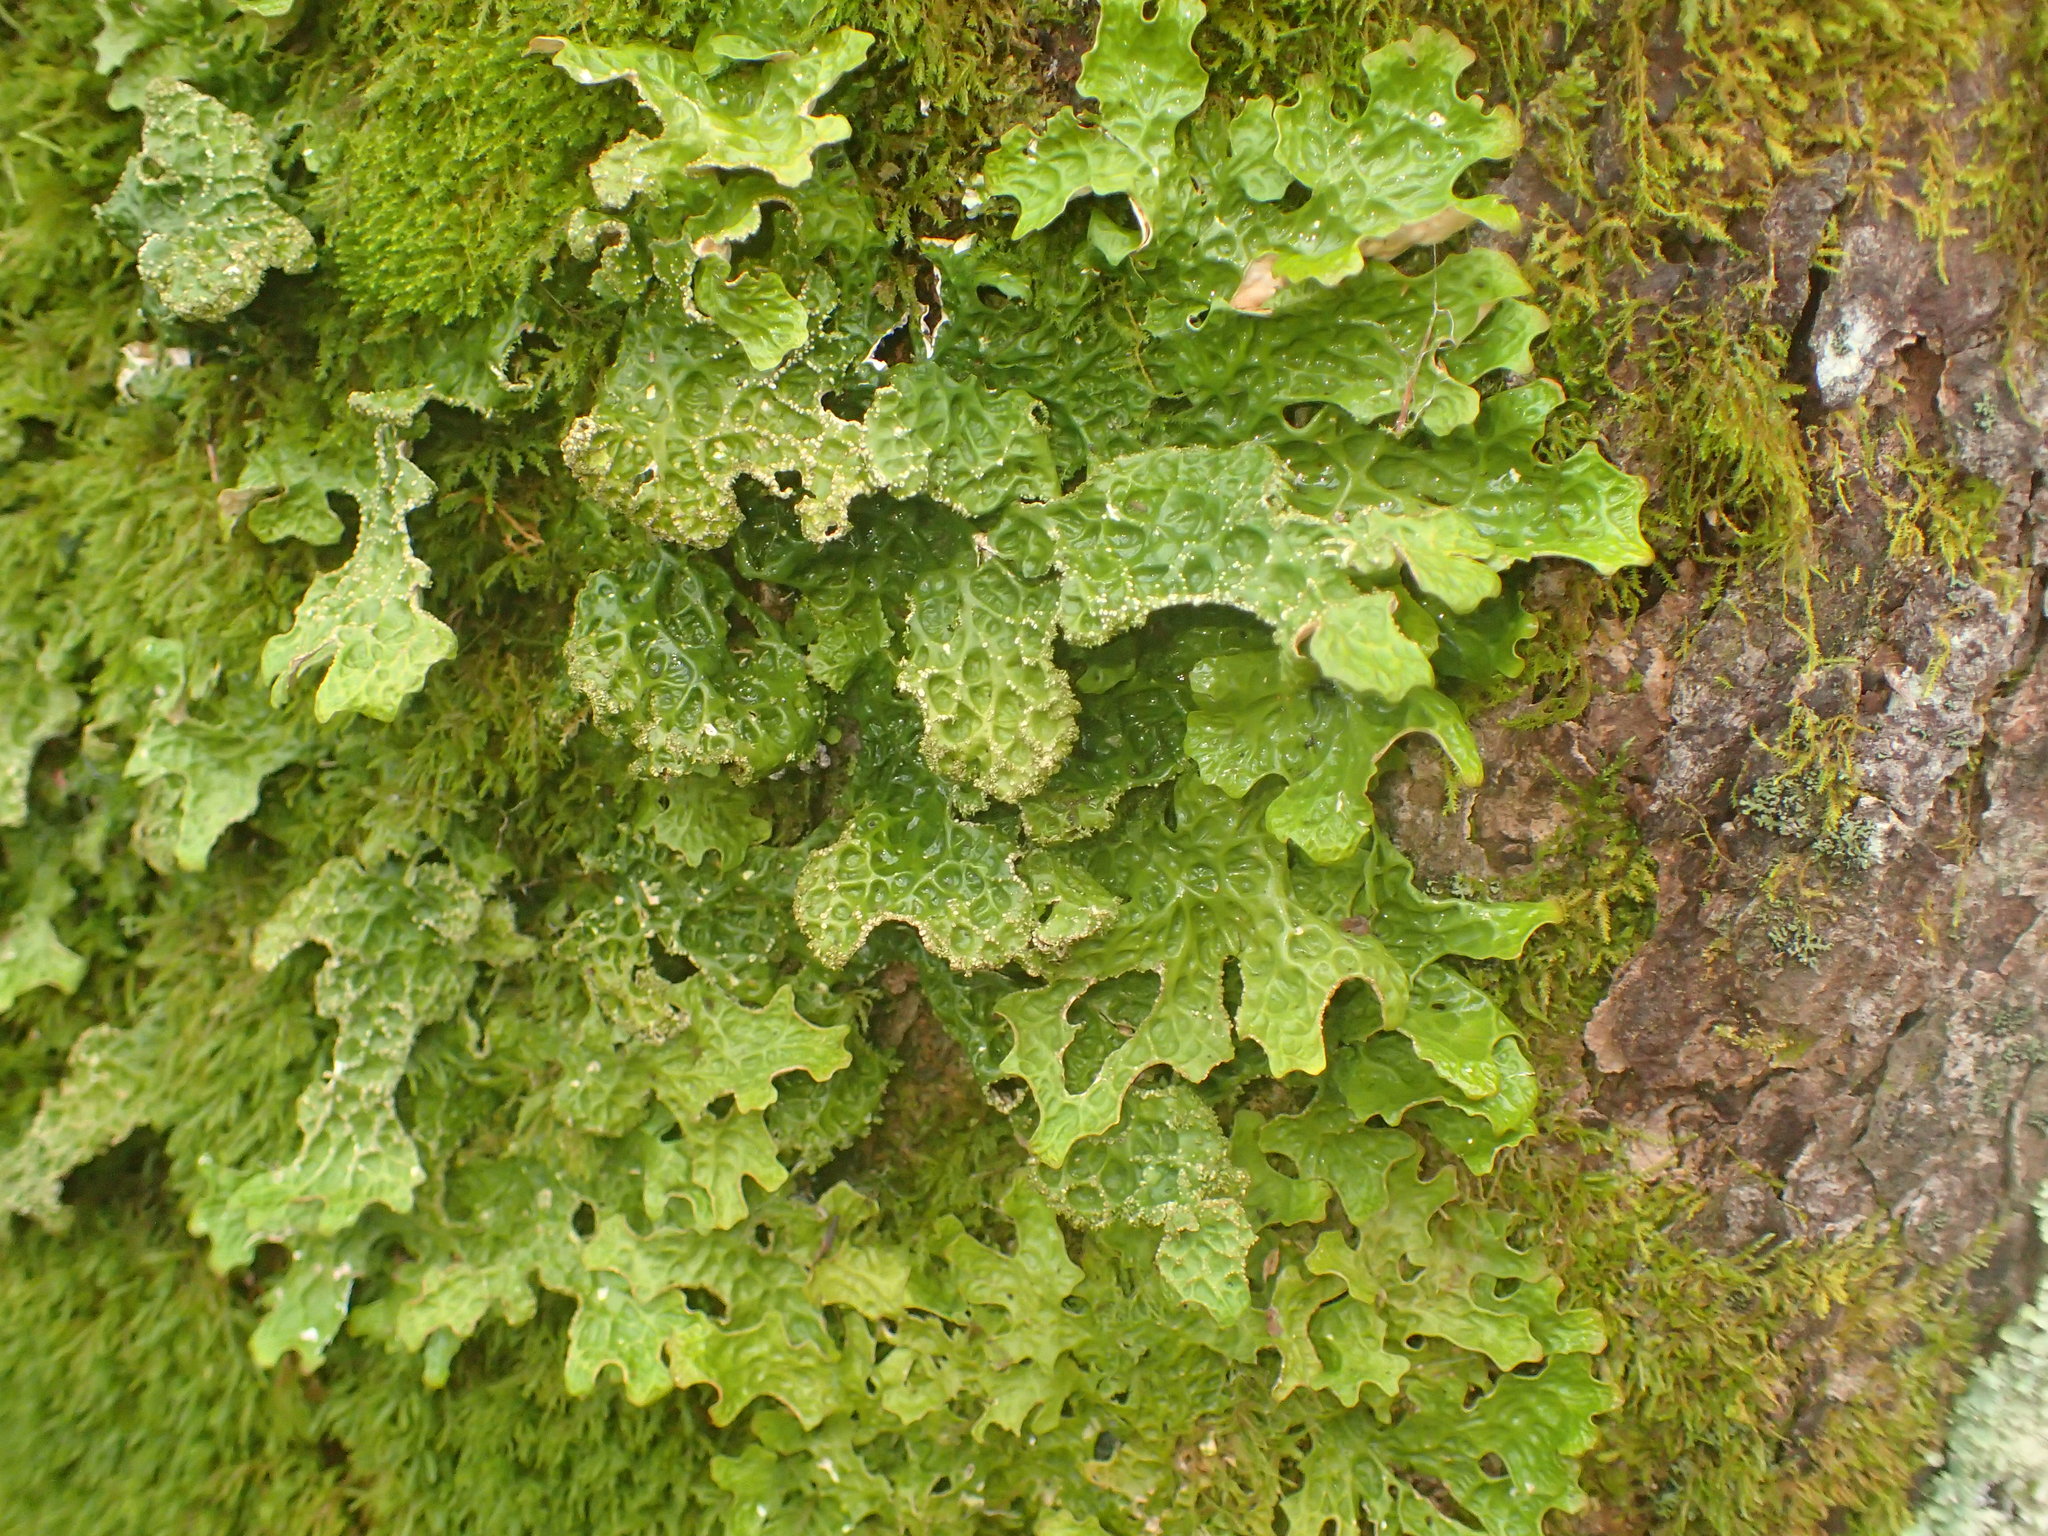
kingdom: Fungi
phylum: Ascomycota
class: Lecanoromycetes
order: Peltigerales
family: Lobariaceae
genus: Lobaria
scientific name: Lobaria pulmonaria
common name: Lungwort
